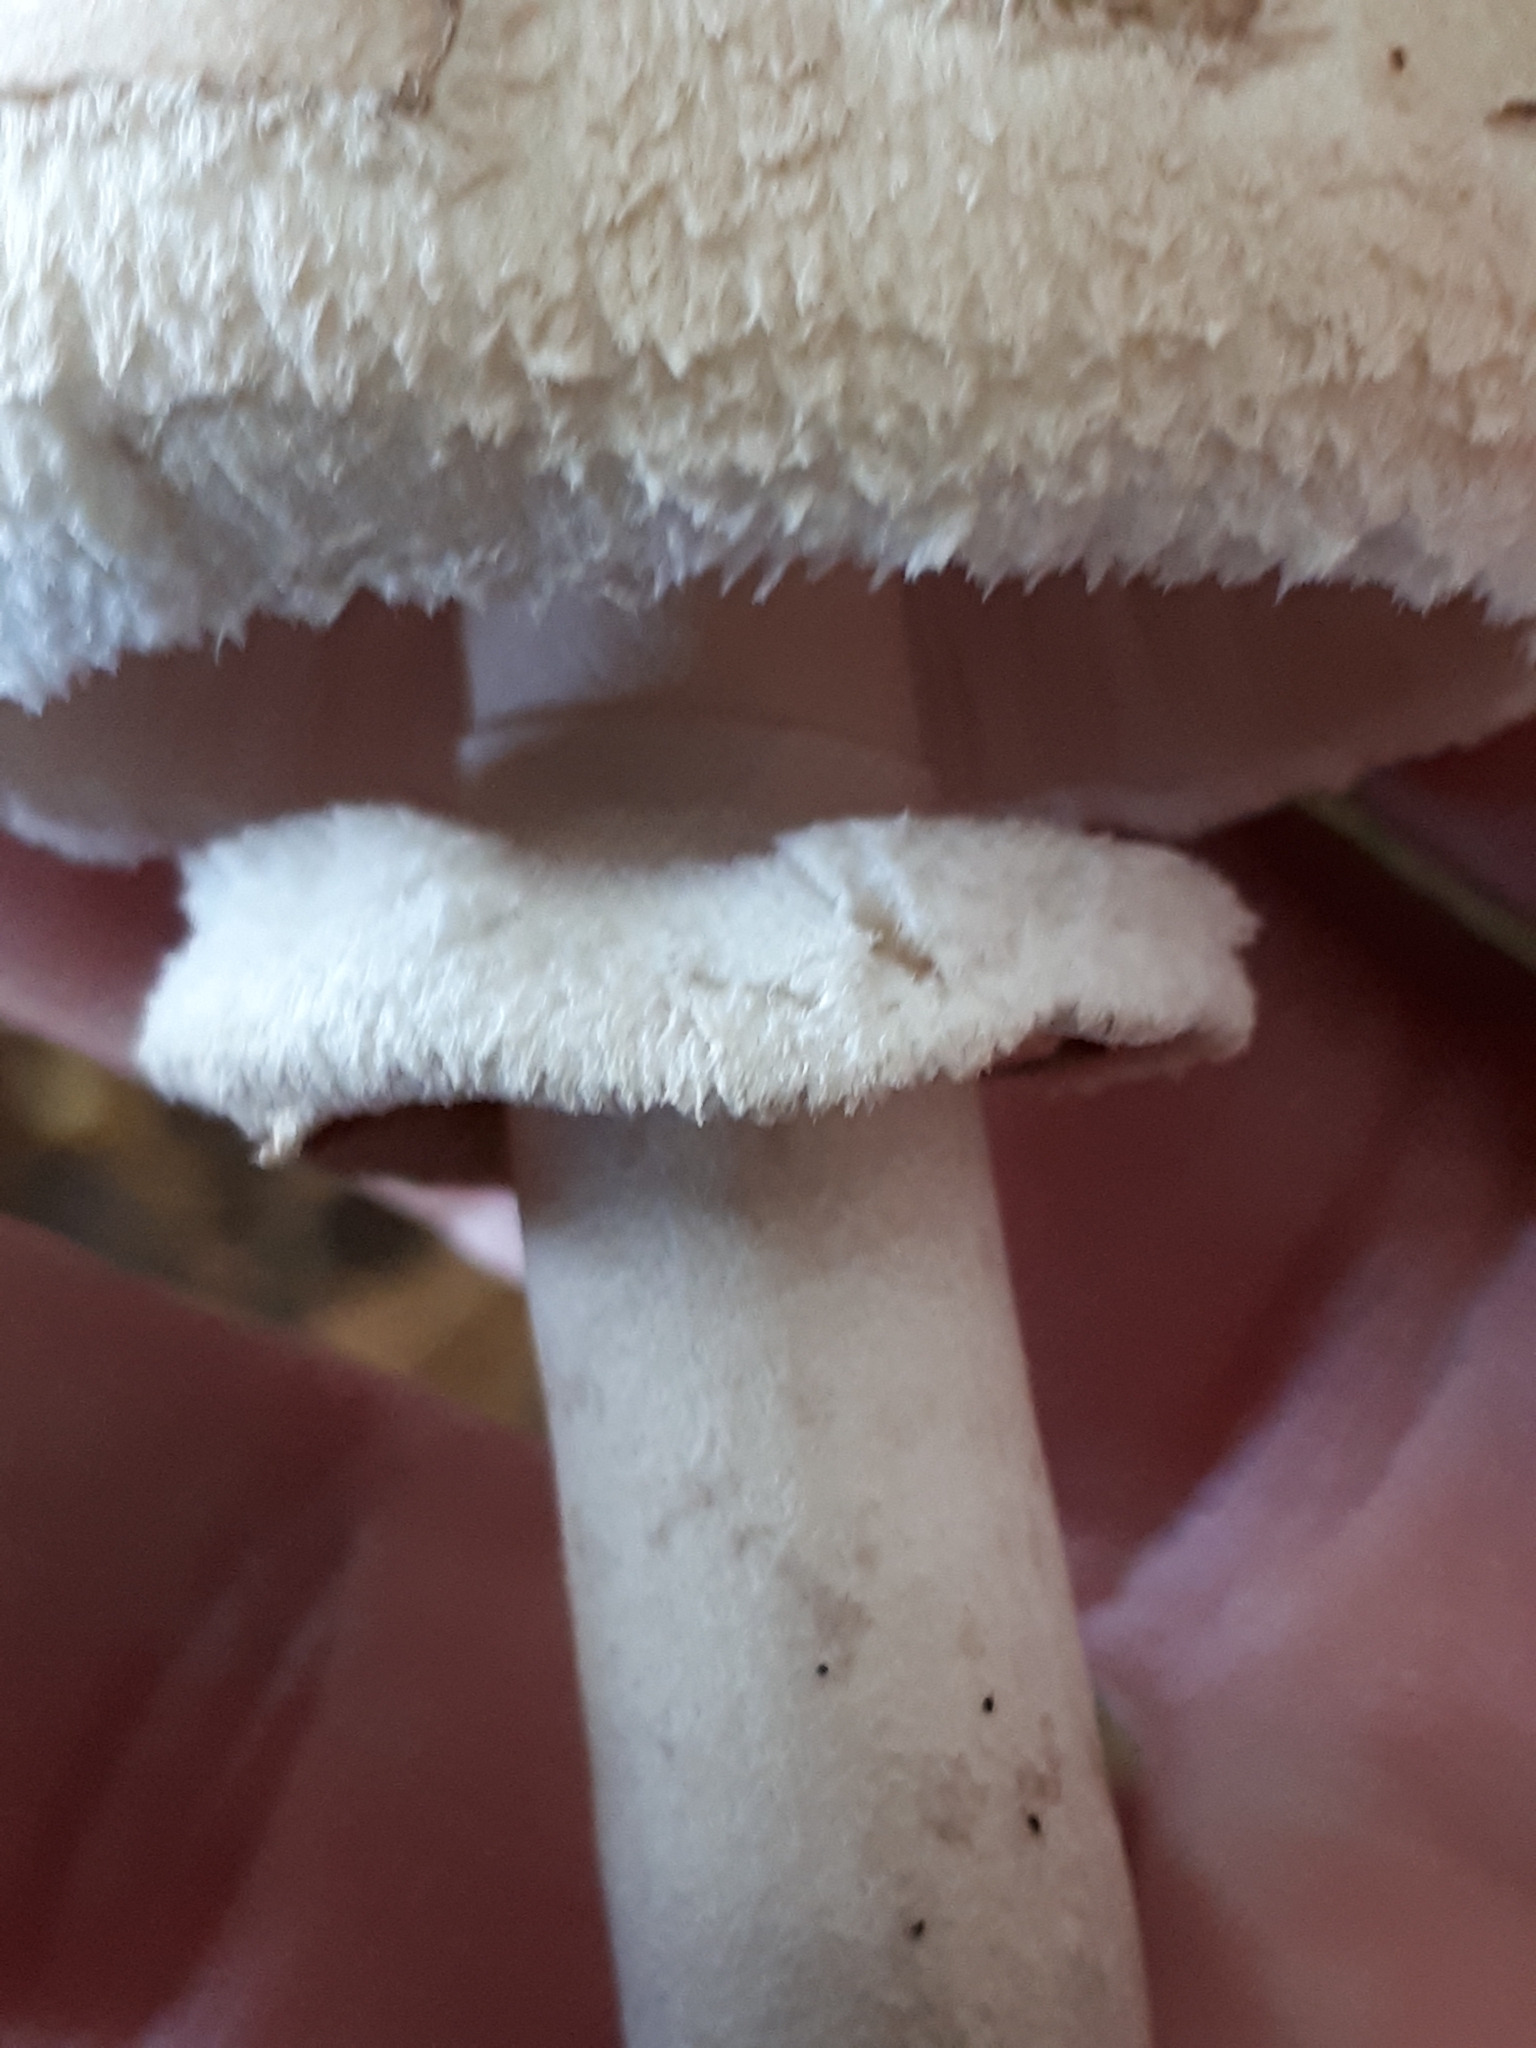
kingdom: Fungi
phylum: Basidiomycota
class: Agaricomycetes
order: Agaricales
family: Agaricaceae
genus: Macrolepiota
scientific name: Macrolepiota fuliginosa
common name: Sooty parasol
